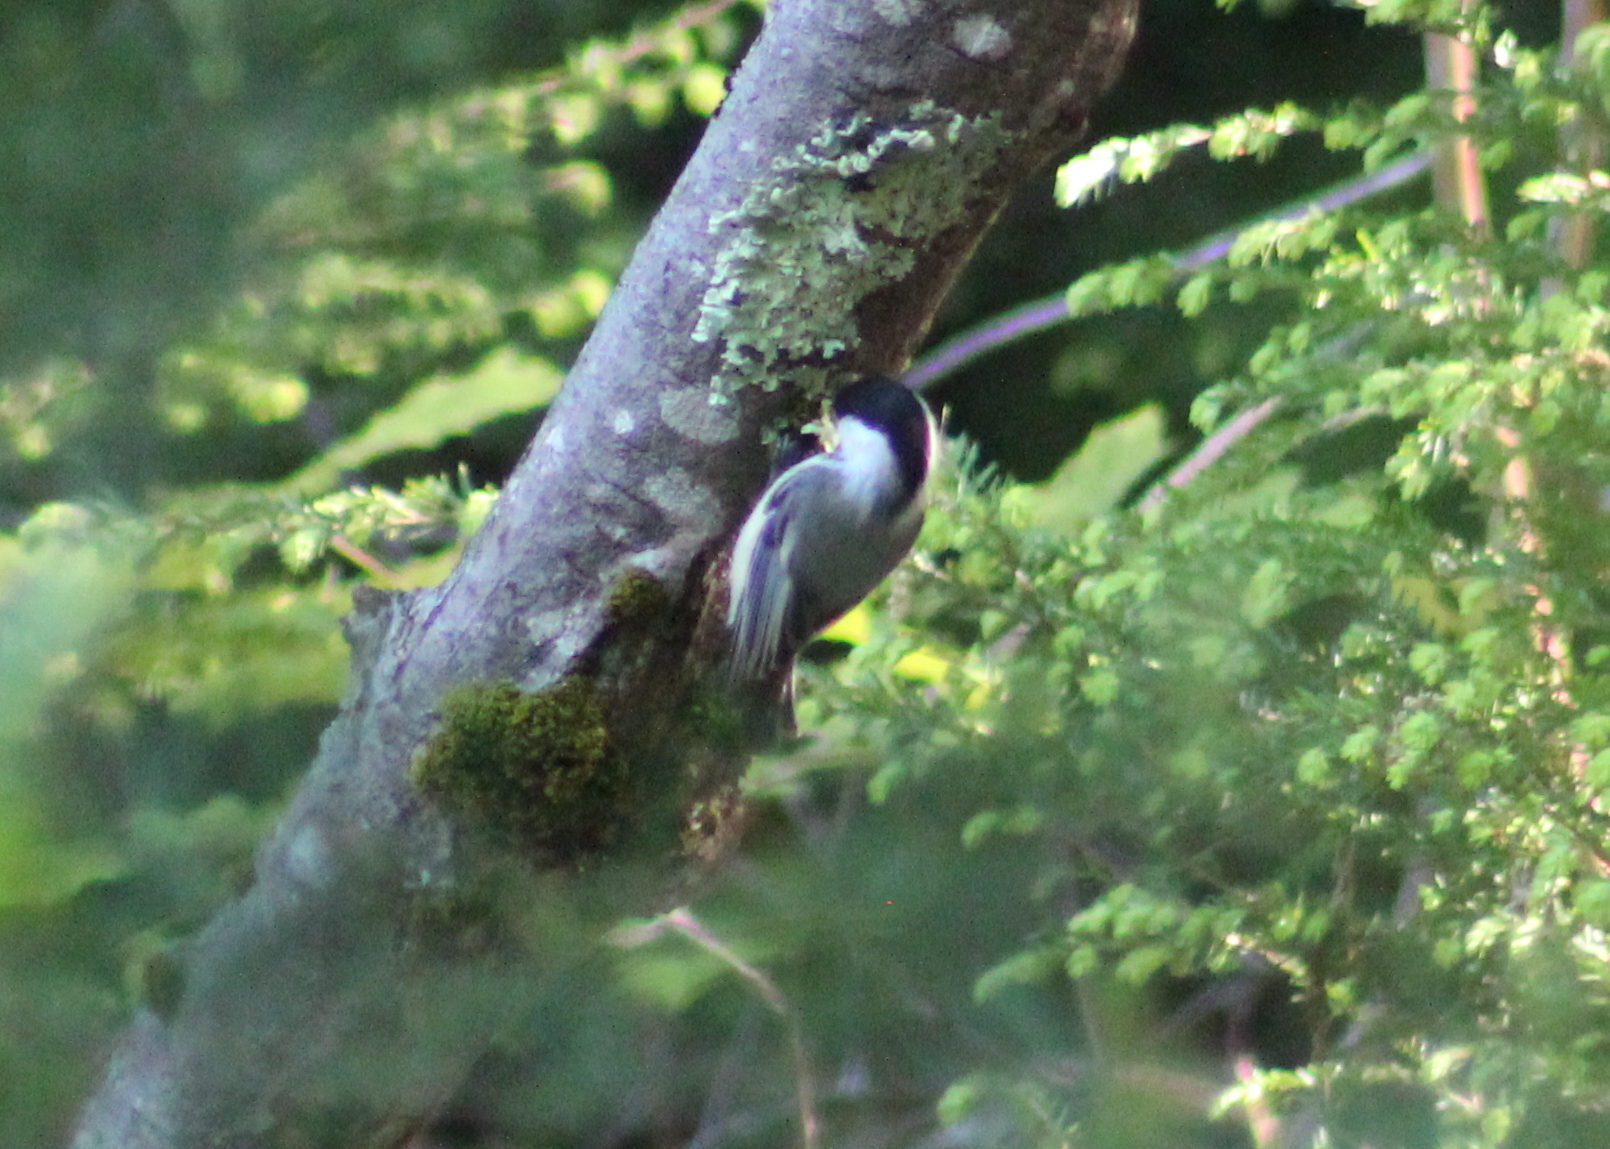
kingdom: Animalia
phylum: Chordata
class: Aves
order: Passeriformes
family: Paridae
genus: Poecile
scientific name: Poecile atricapillus
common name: Black-capped chickadee
